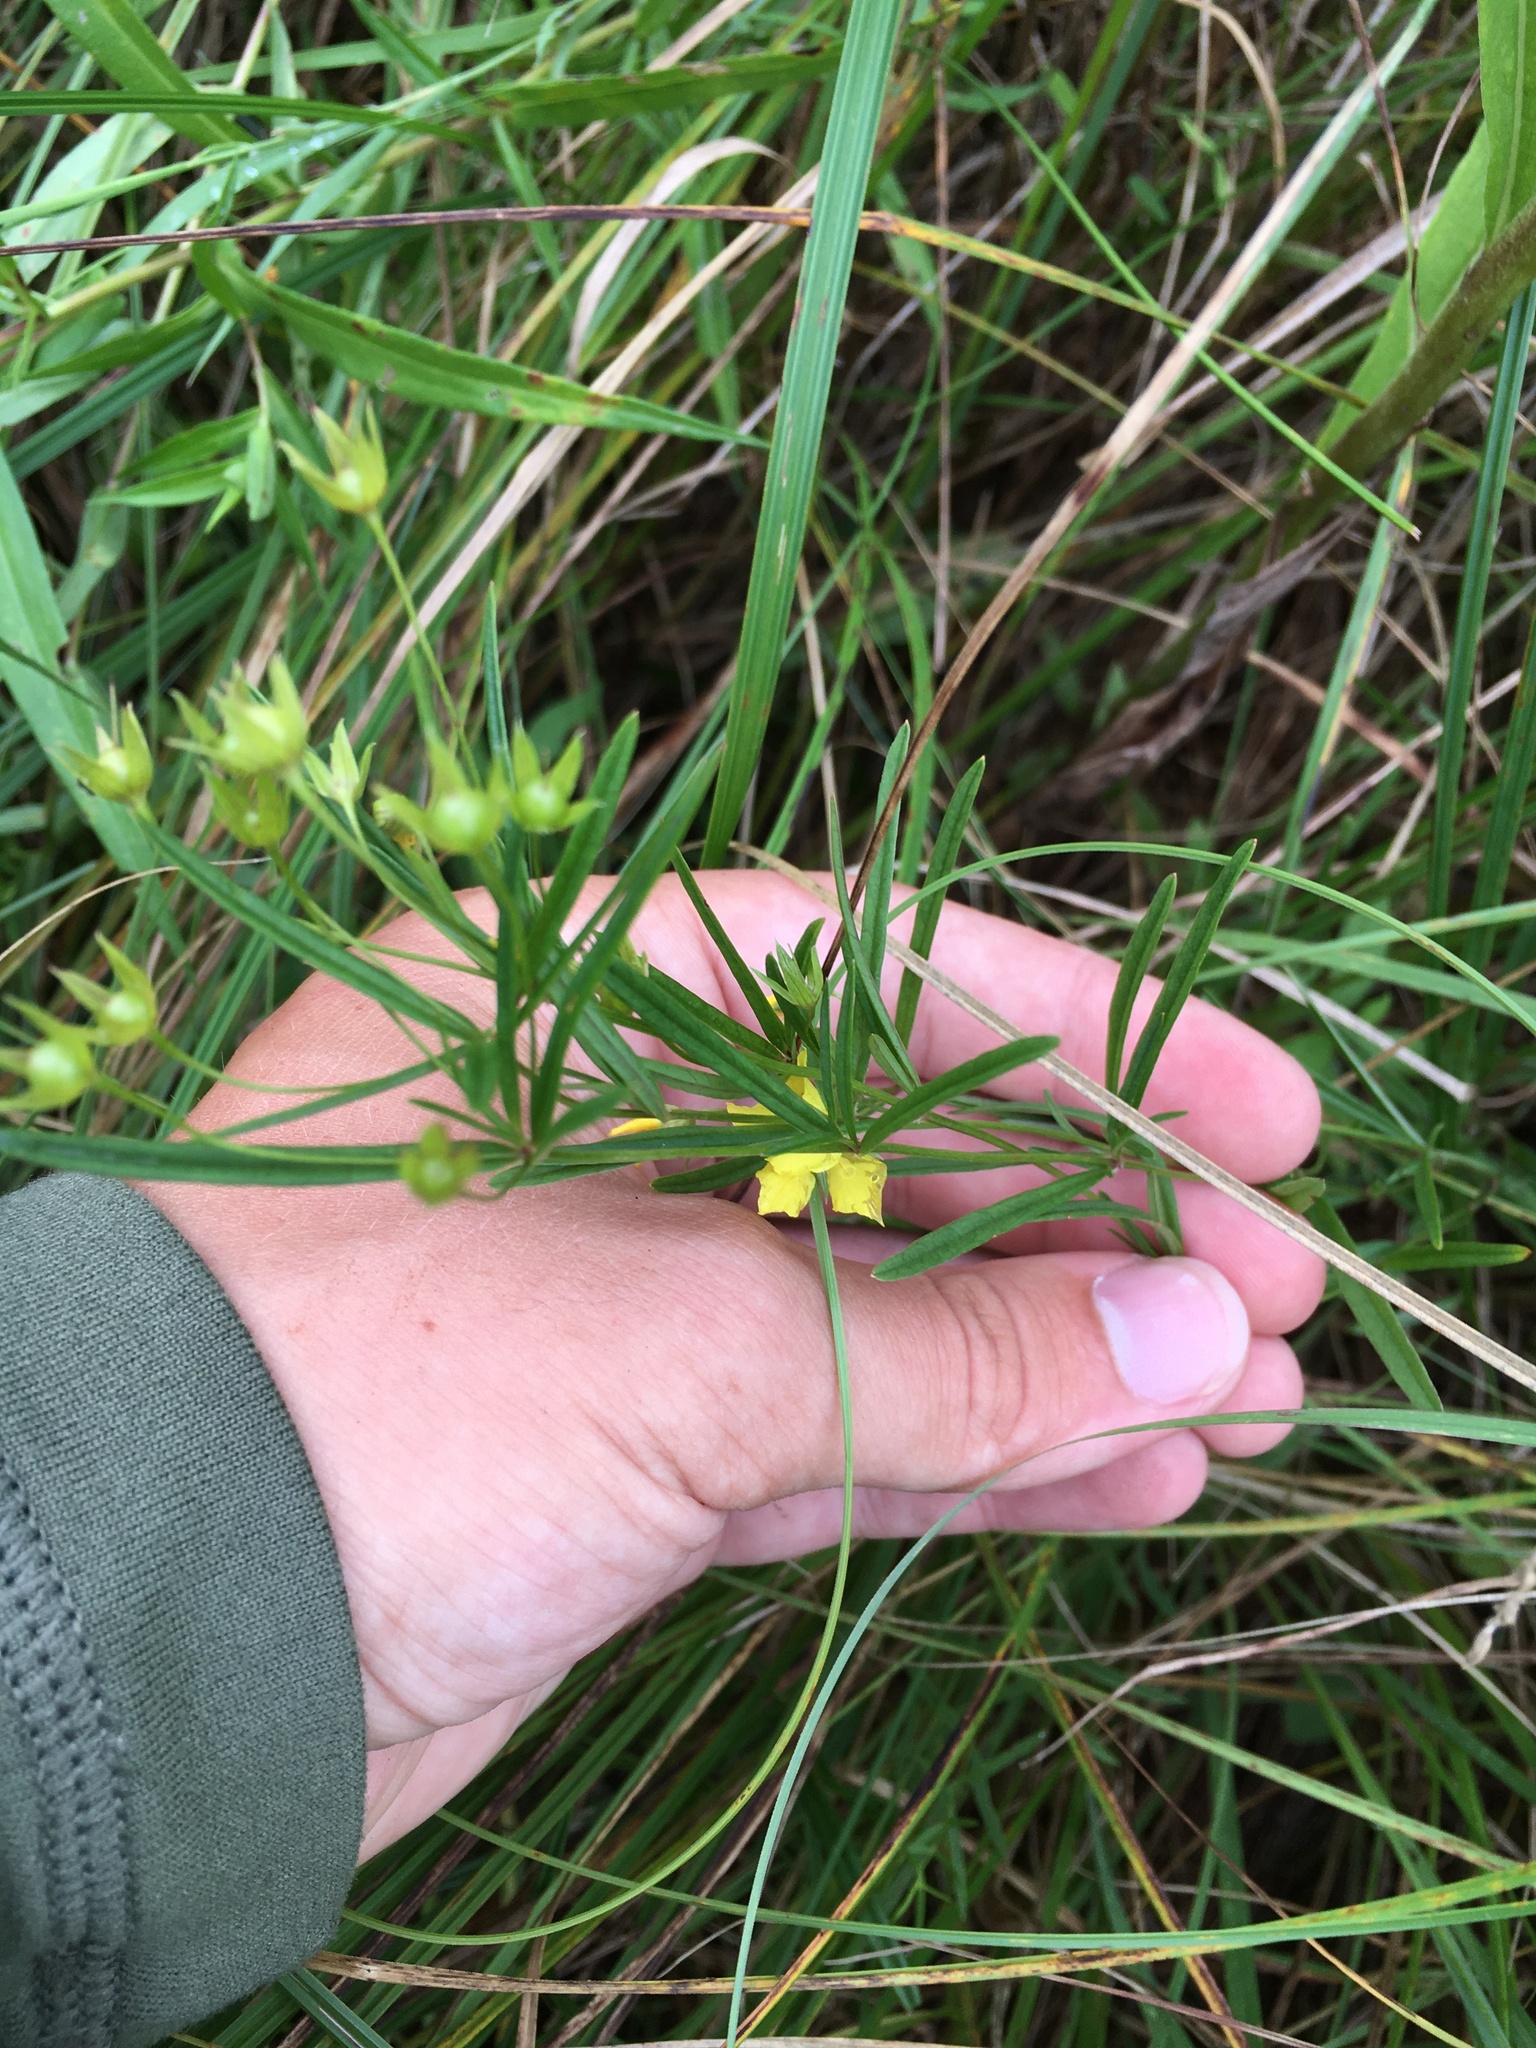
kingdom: Plantae
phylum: Tracheophyta
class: Magnoliopsida
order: Ericales
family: Primulaceae
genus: Lysimachia
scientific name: Lysimachia quadriflora
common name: Four-flowered loosestrife
